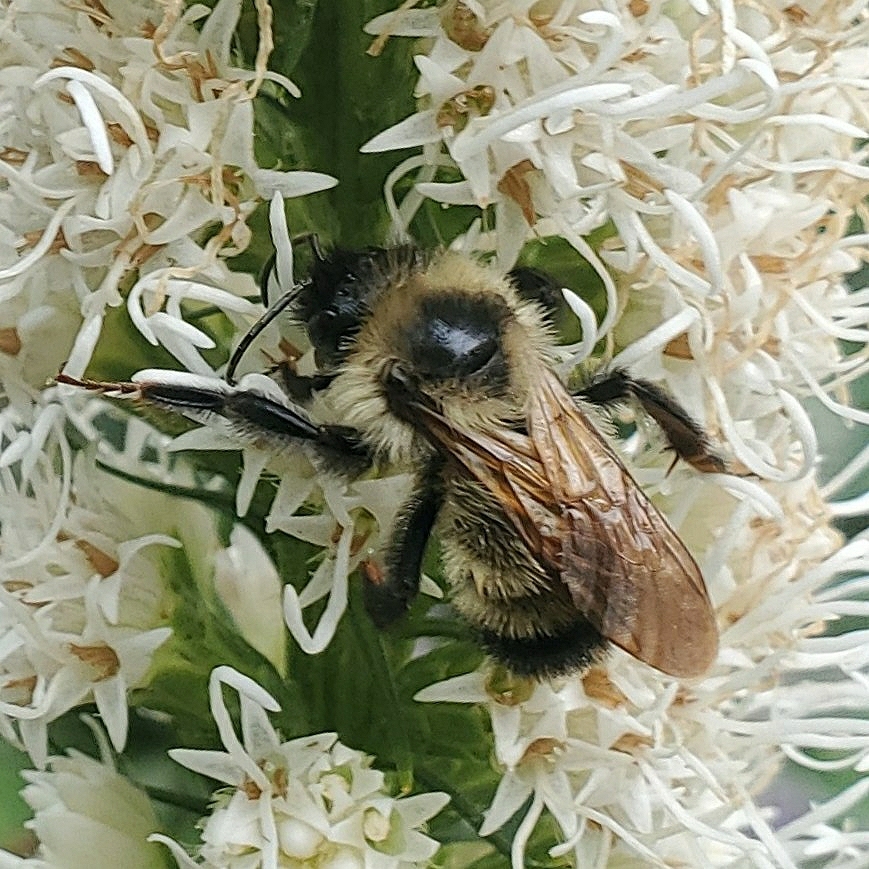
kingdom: Animalia
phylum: Arthropoda
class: Insecta
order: Hymenoptera
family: Apidae
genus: Bombus
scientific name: Bombus citrinus
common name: Lemon cuckoo bumble bee
